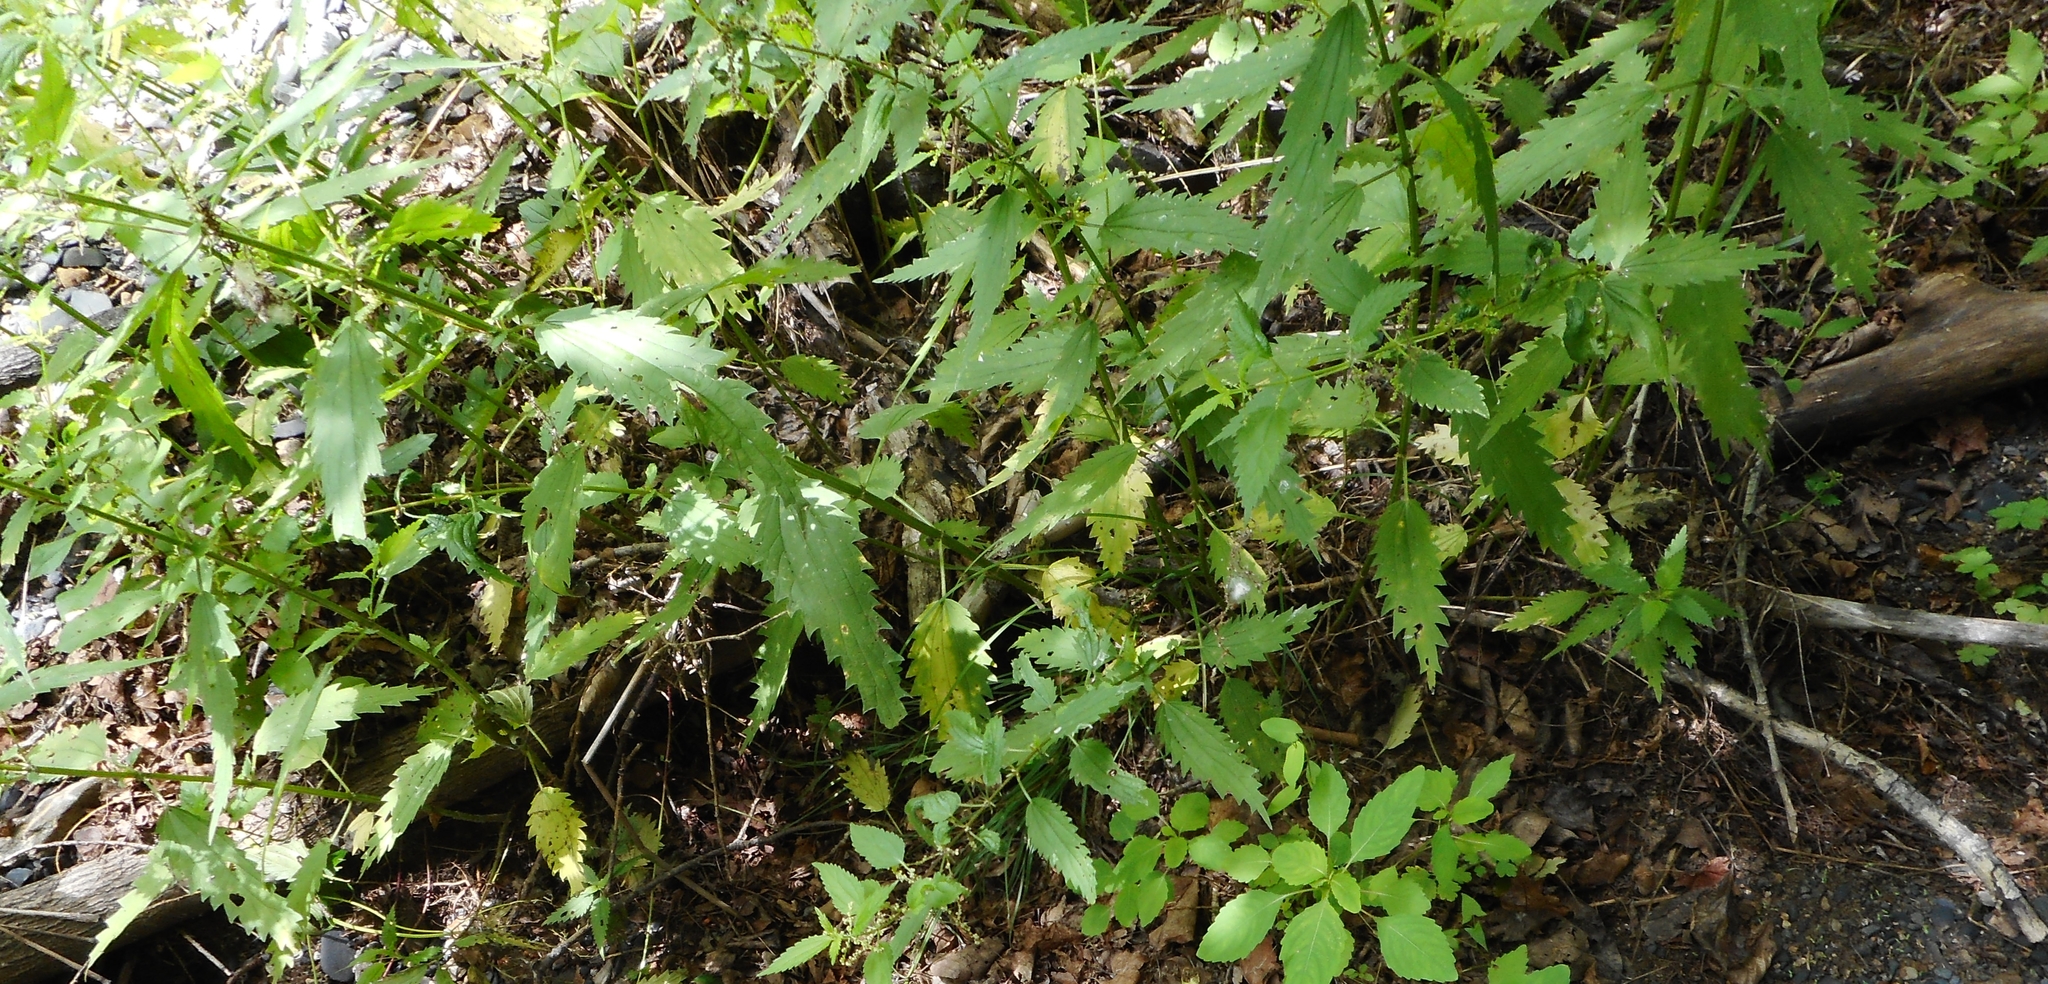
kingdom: Plantae
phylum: Tracheophyta
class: Magnoliopsida
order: Rosales
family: Urticaceae
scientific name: Urticaceae
